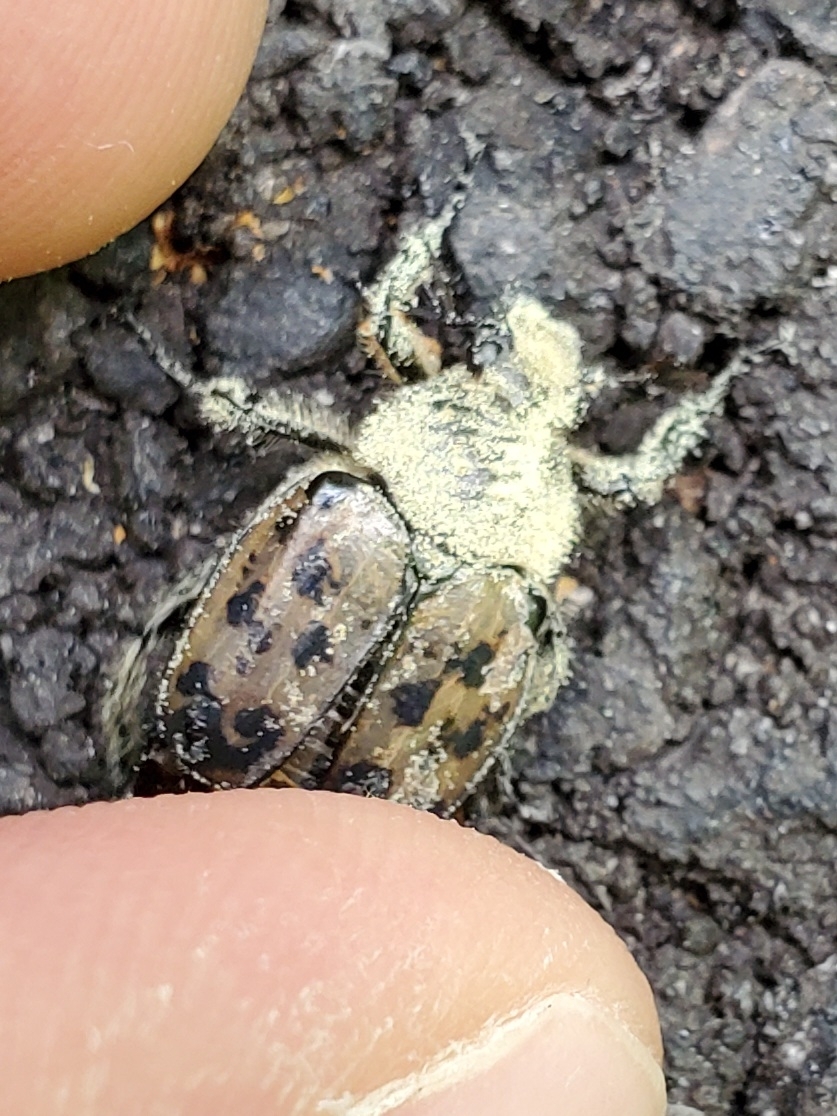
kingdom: Animalia
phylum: Arthropoda
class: Insecta
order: Coleoptera
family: Scarabaeidae
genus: Gnorimella
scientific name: Gnorimella maculosa
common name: Maculate flower beetle
